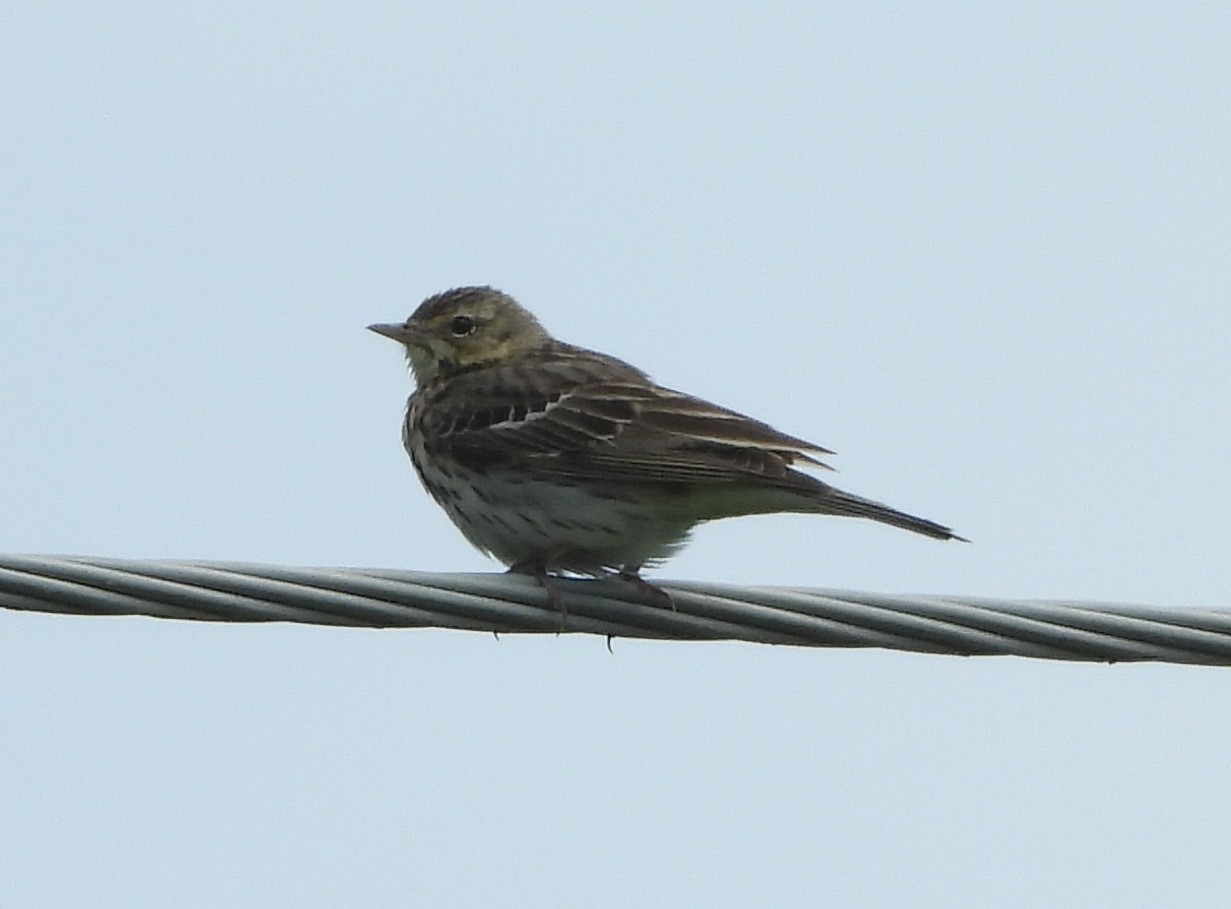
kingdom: Animalia
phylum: Chordata
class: Aves
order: Passeriformes
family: Motacillidae
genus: Anthus
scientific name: Anthus trivialis
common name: Tree pipit
